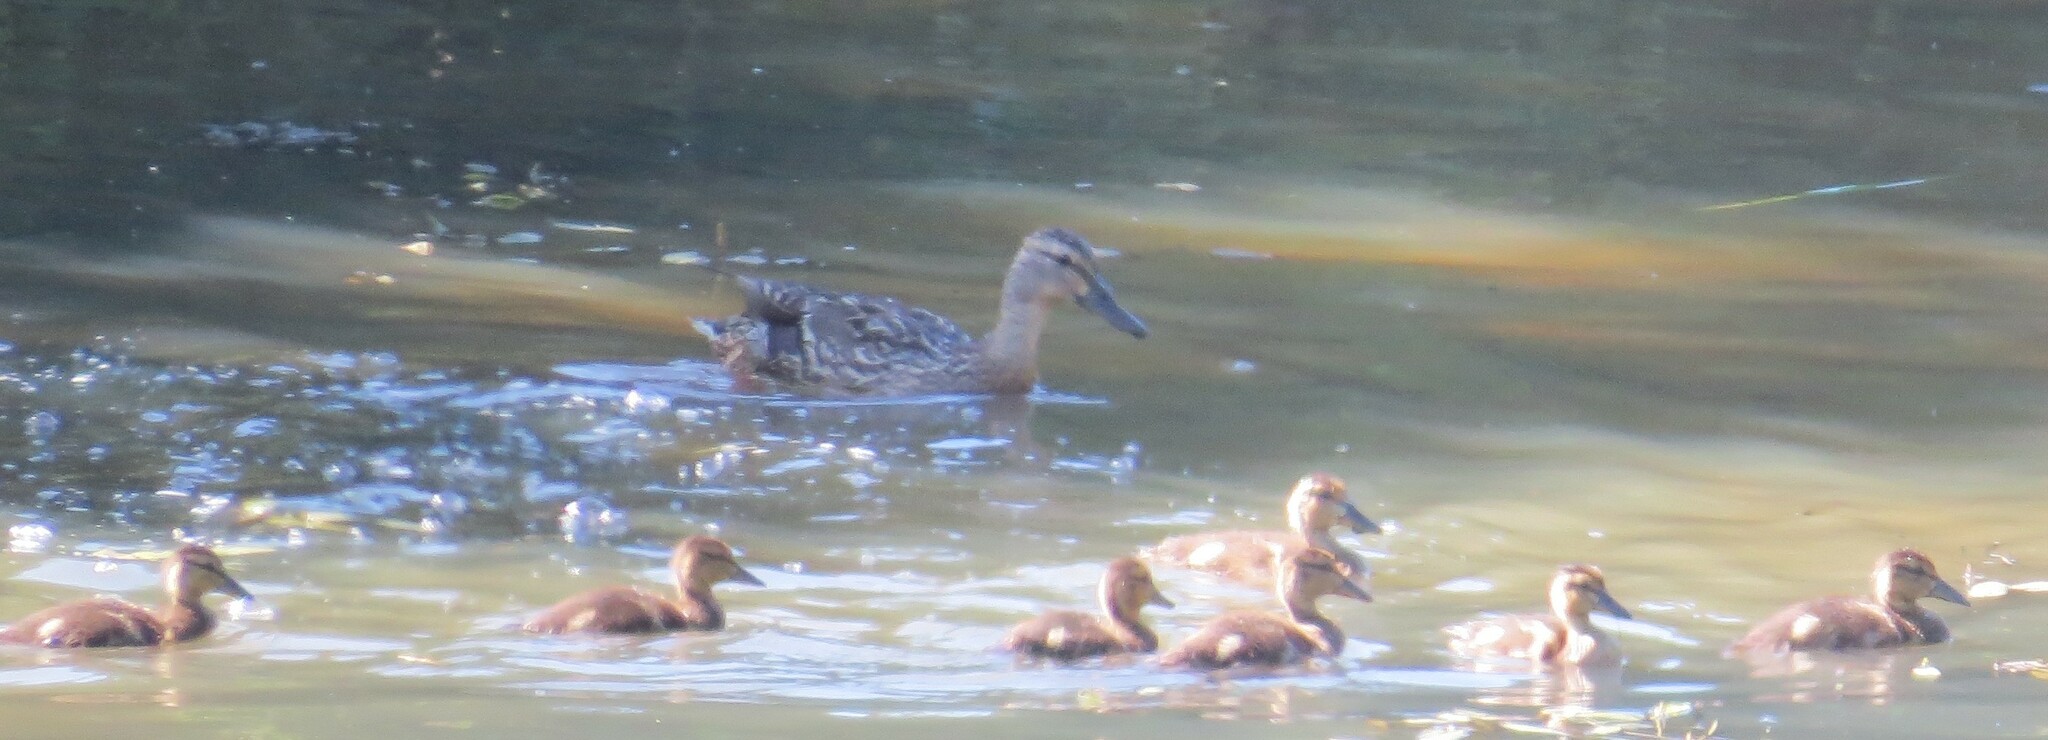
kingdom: Animalia
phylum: Chordata
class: Aves
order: Anseriformes
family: Anatidae
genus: Anas
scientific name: Anas platyrhynchos
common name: Mallard
